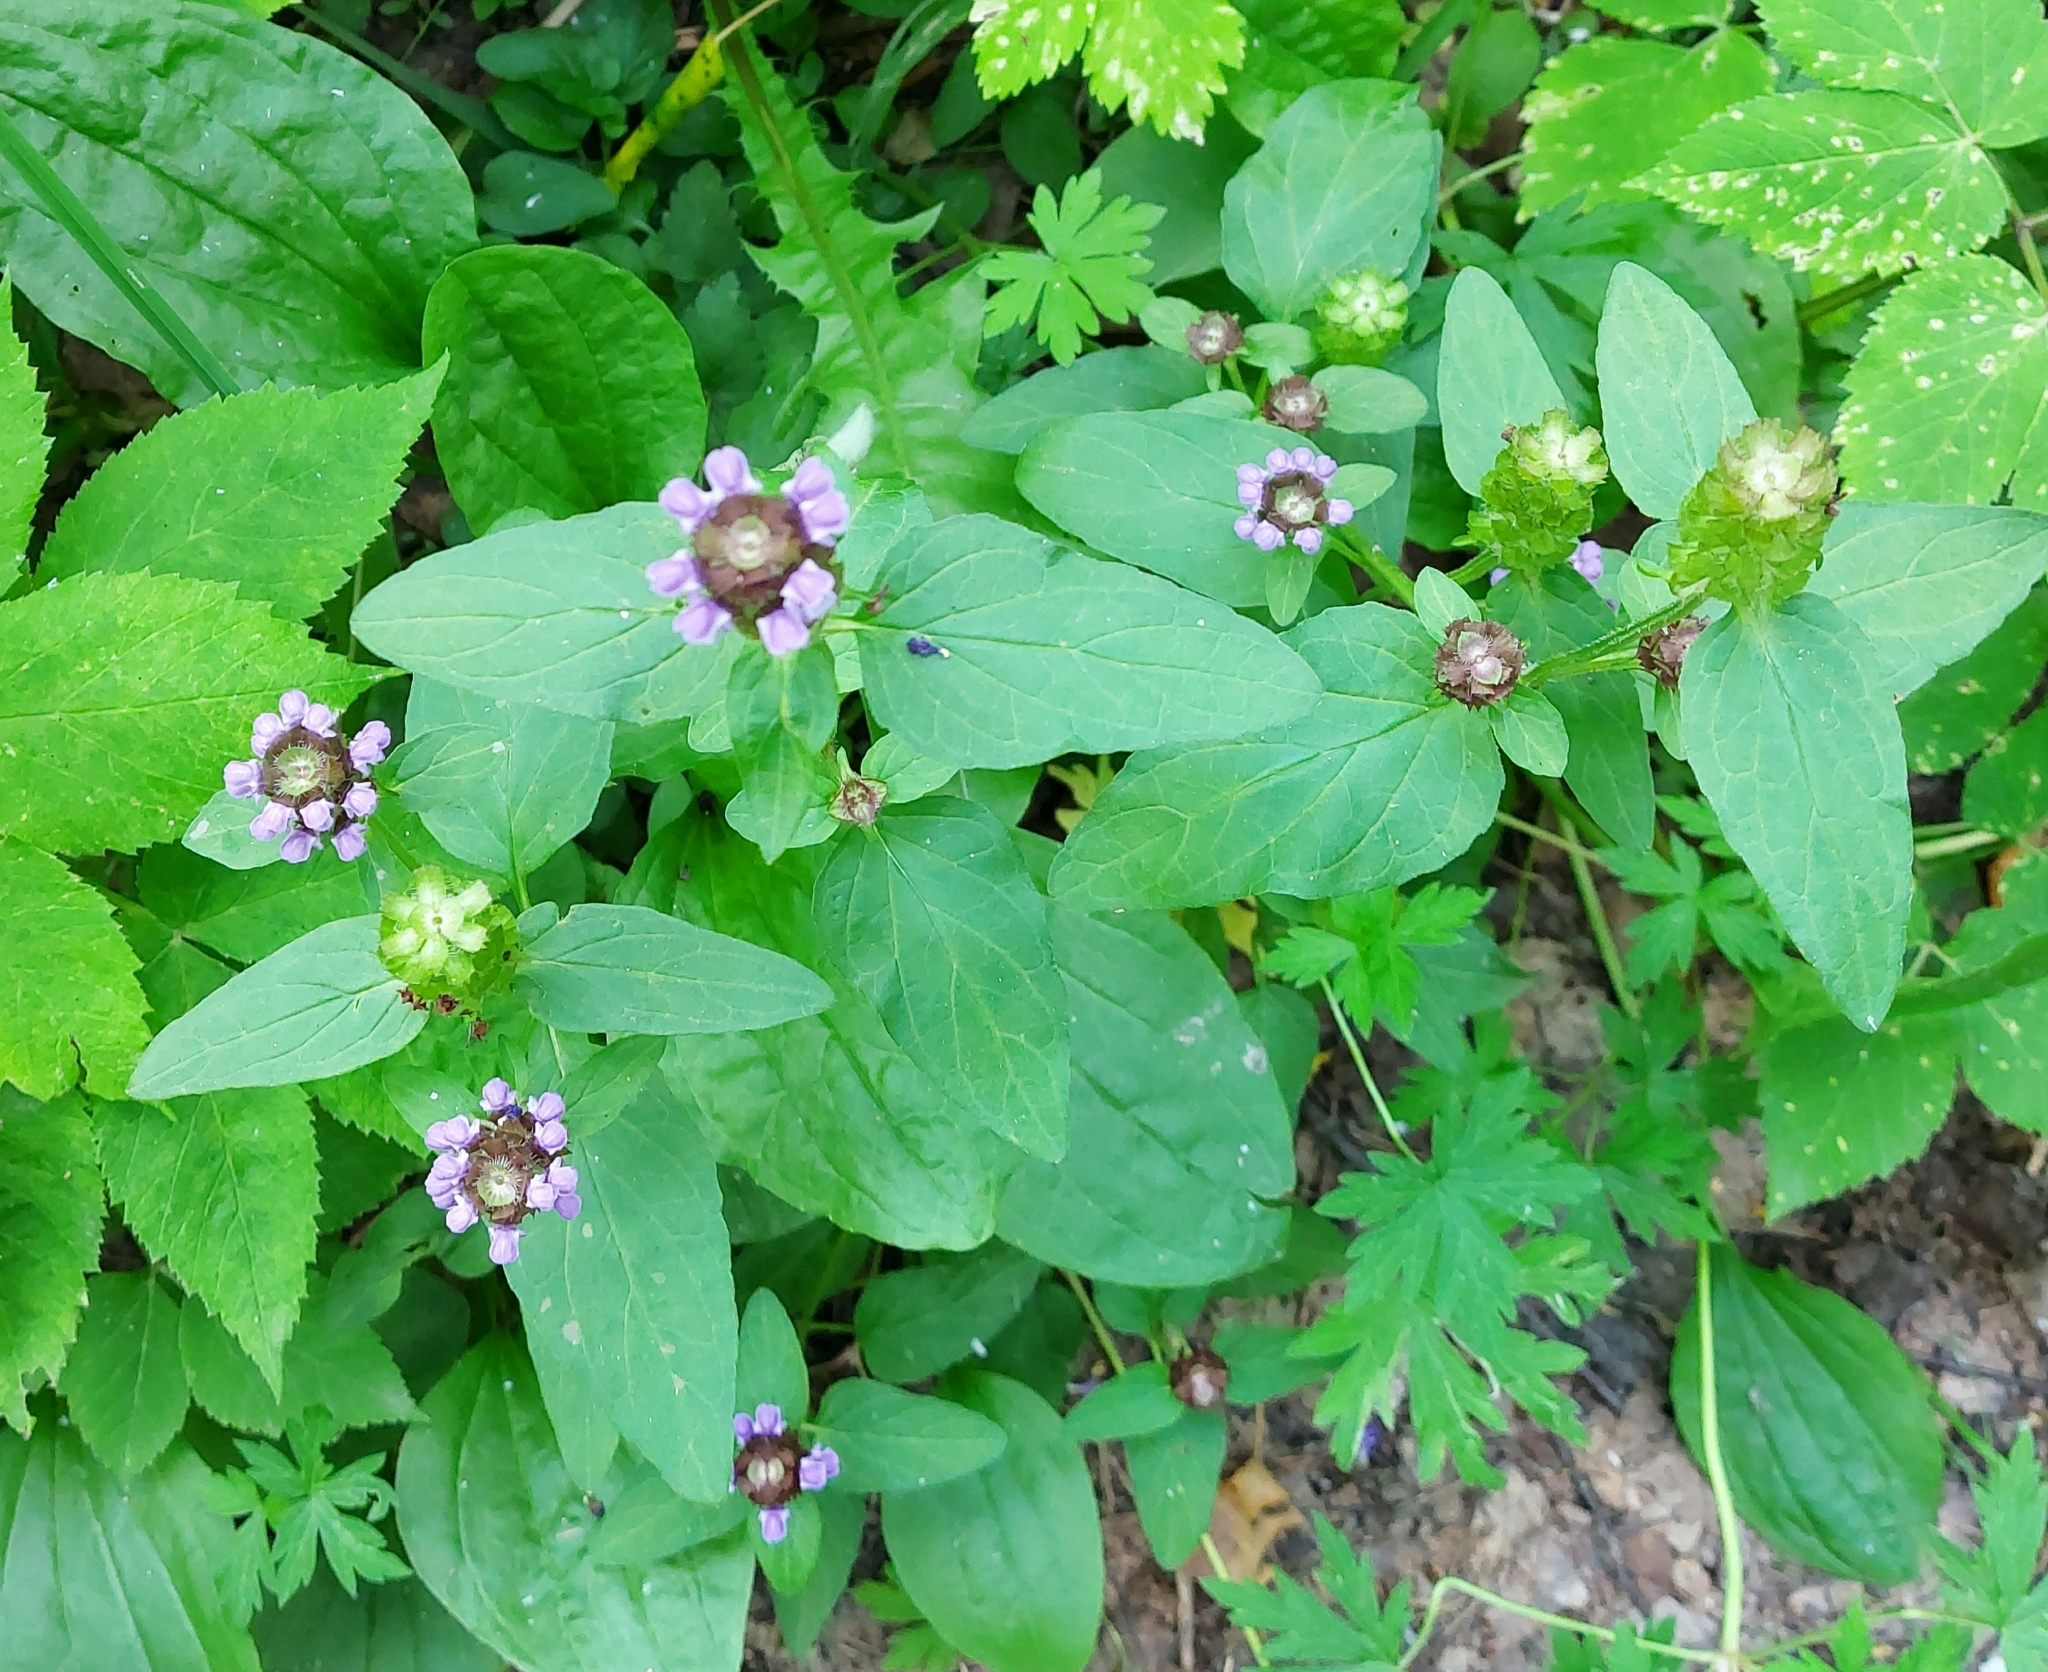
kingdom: Plantae
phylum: Tracheophyta
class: Magnoliopsida
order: Lamiales
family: Lamiaceae
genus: Prunella
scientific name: Prunella vulgaris
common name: Heal-all
